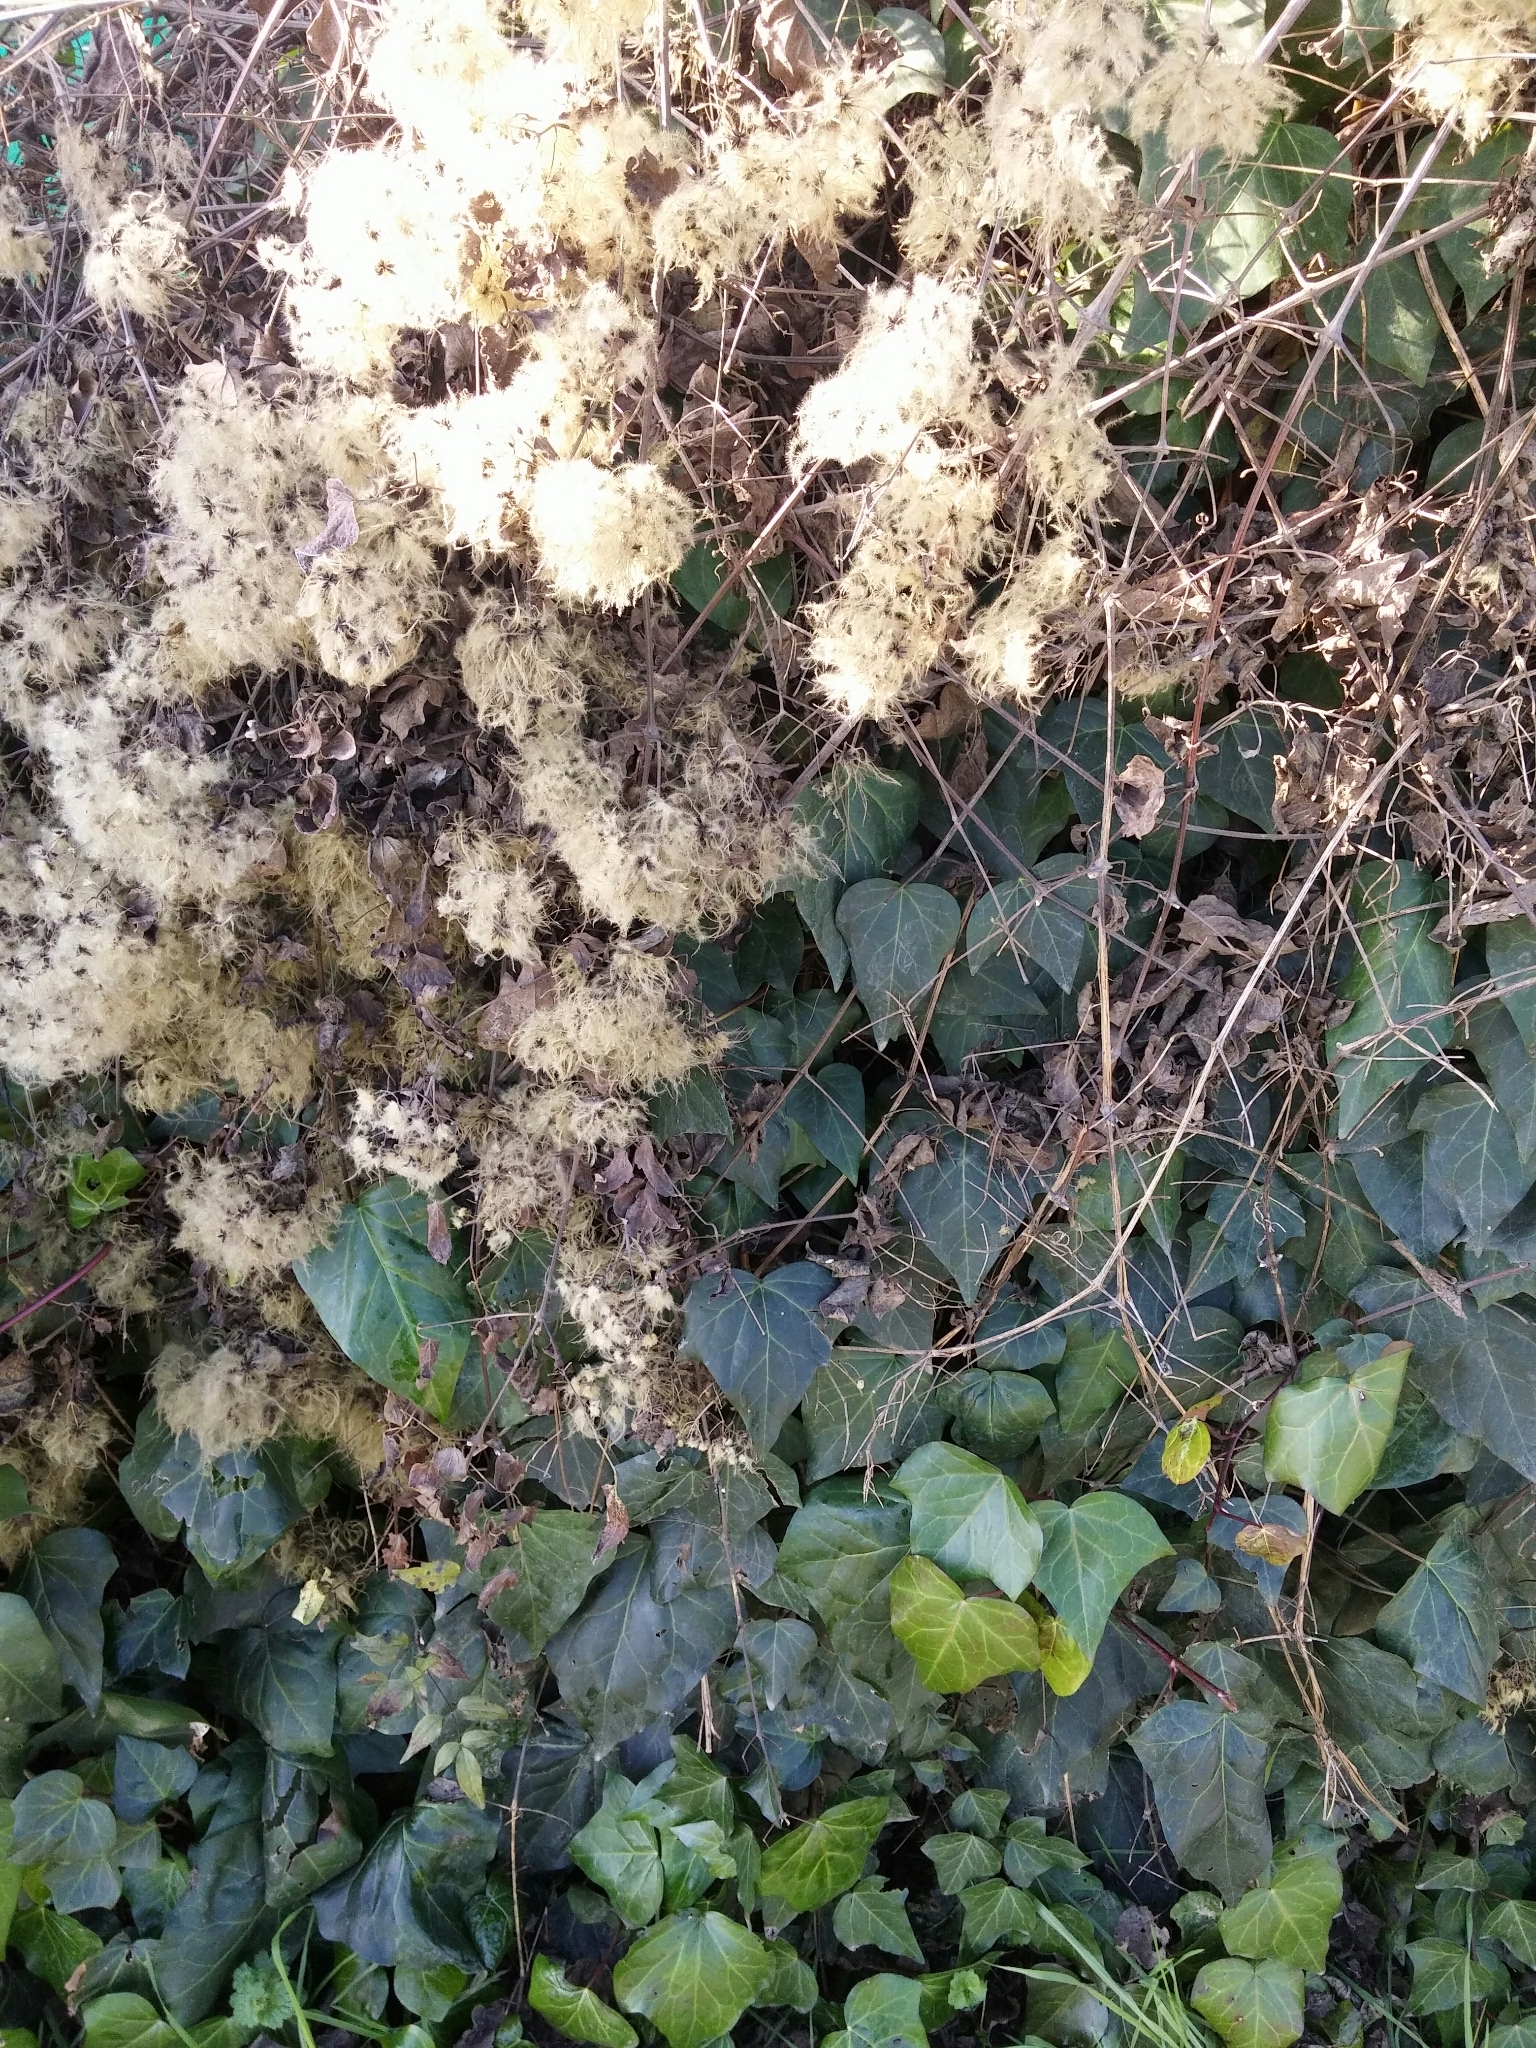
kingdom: Plantae
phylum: Tracheophyta
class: Magnoliopsida
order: Apiales
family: Araliaceae
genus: Hedera
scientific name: Hedera helix
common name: Ivy
